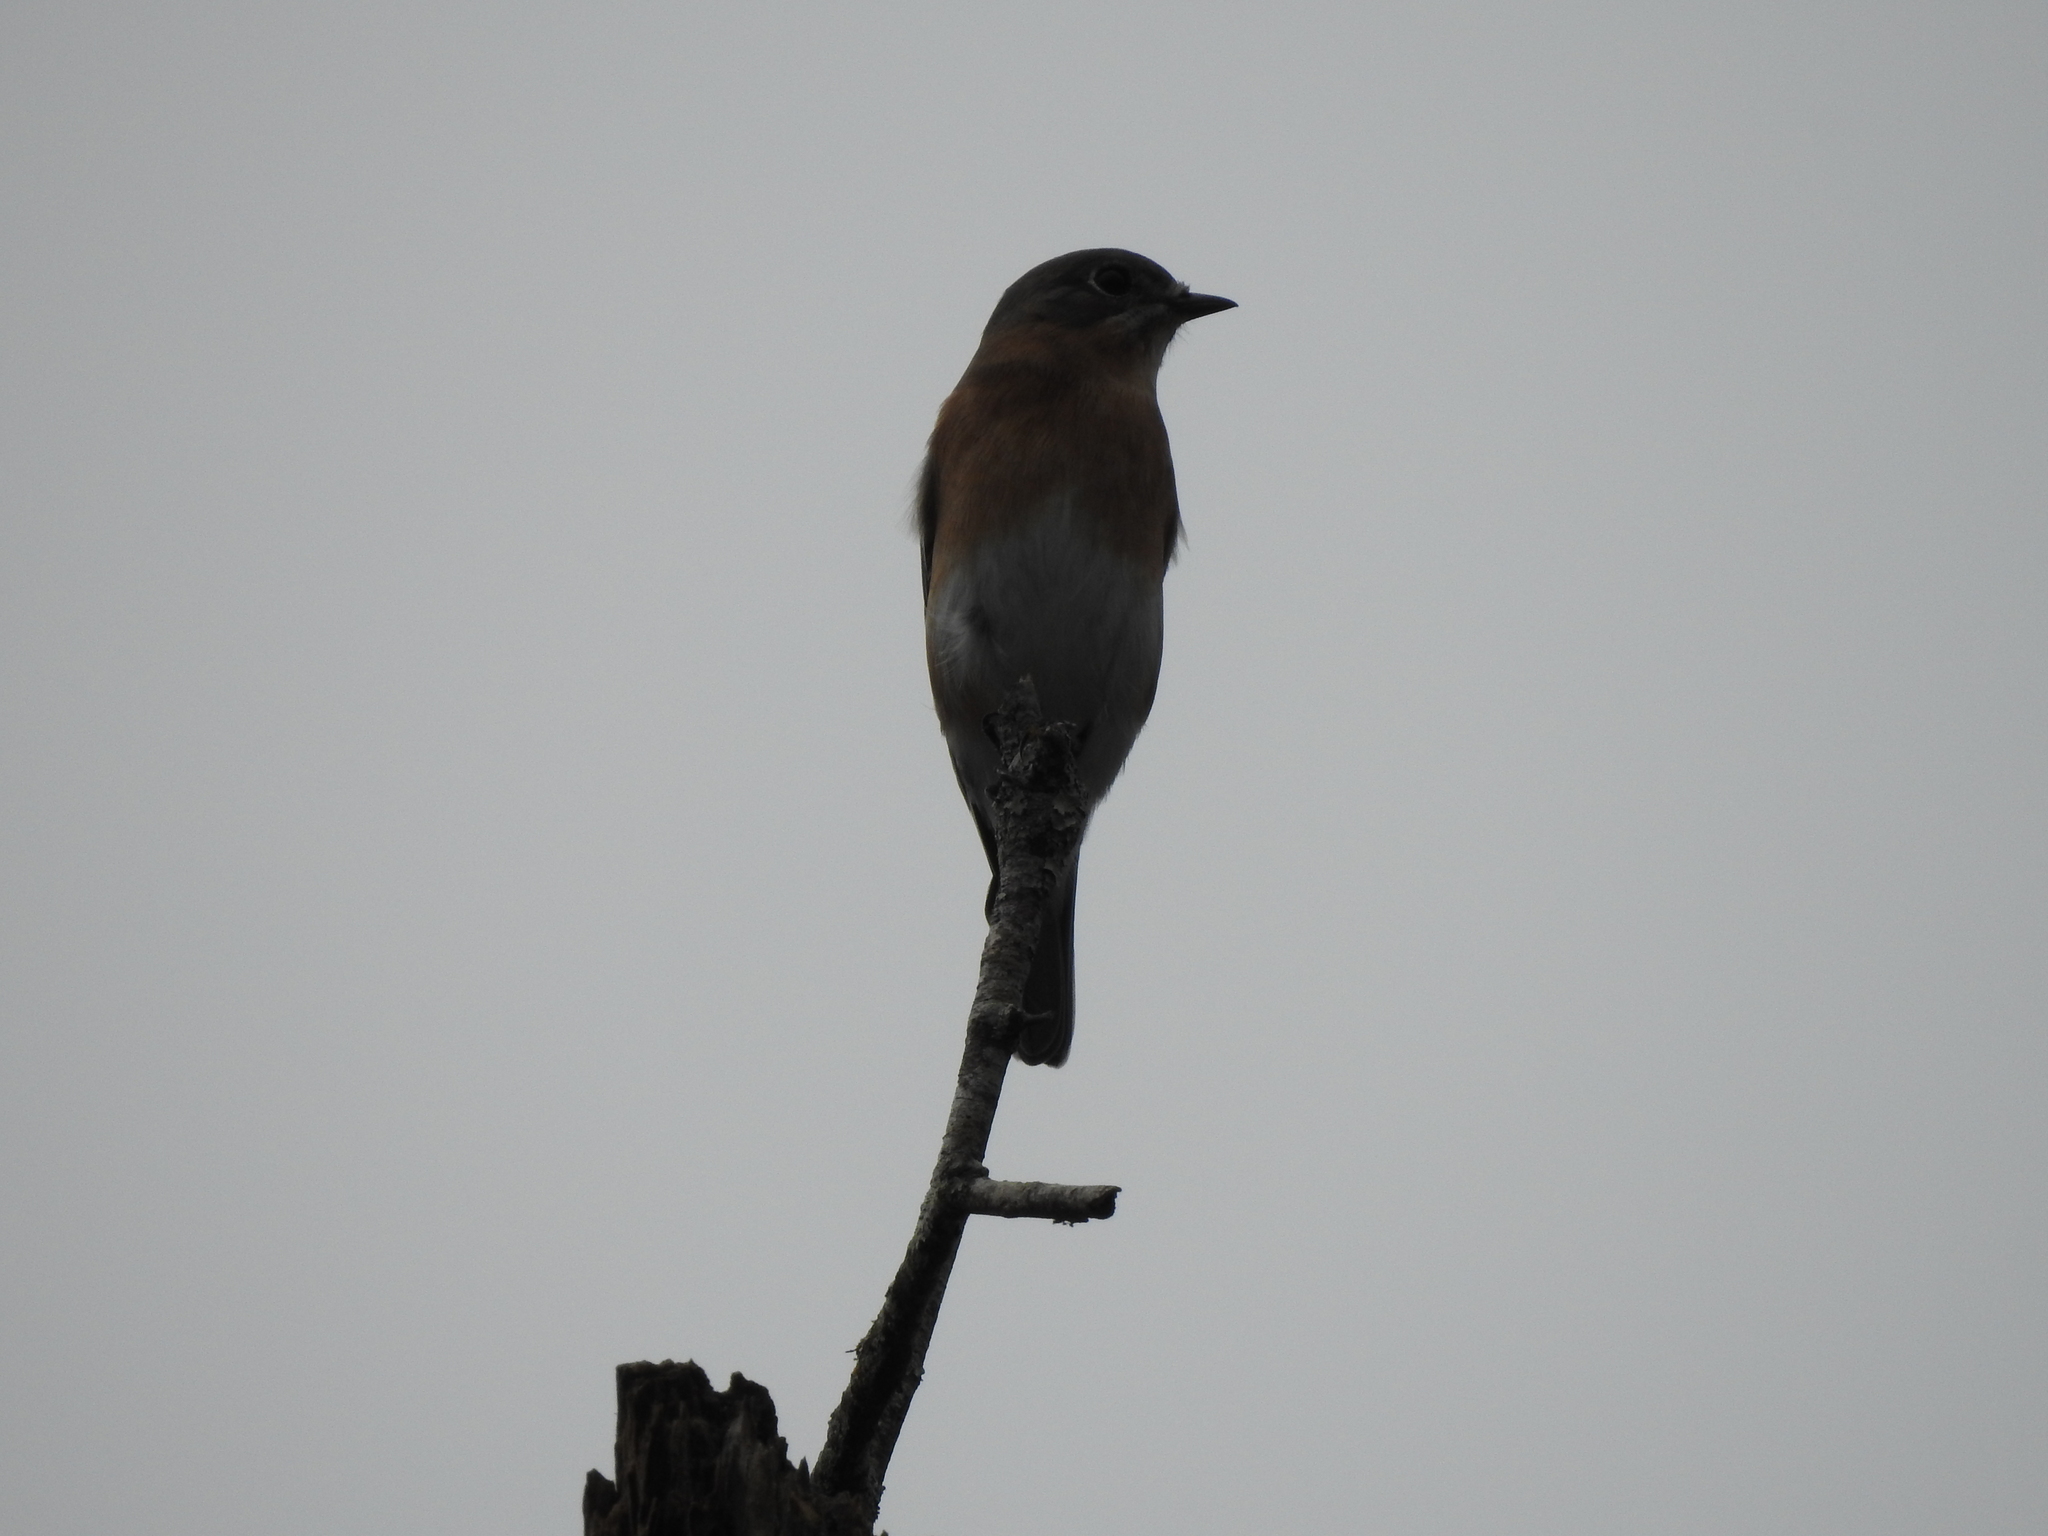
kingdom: Animalia
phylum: Chordata
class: Aves
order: Passeriformes
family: Turdidae
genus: Sialia
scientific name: Sialia sialis
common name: Eastern bluebird
